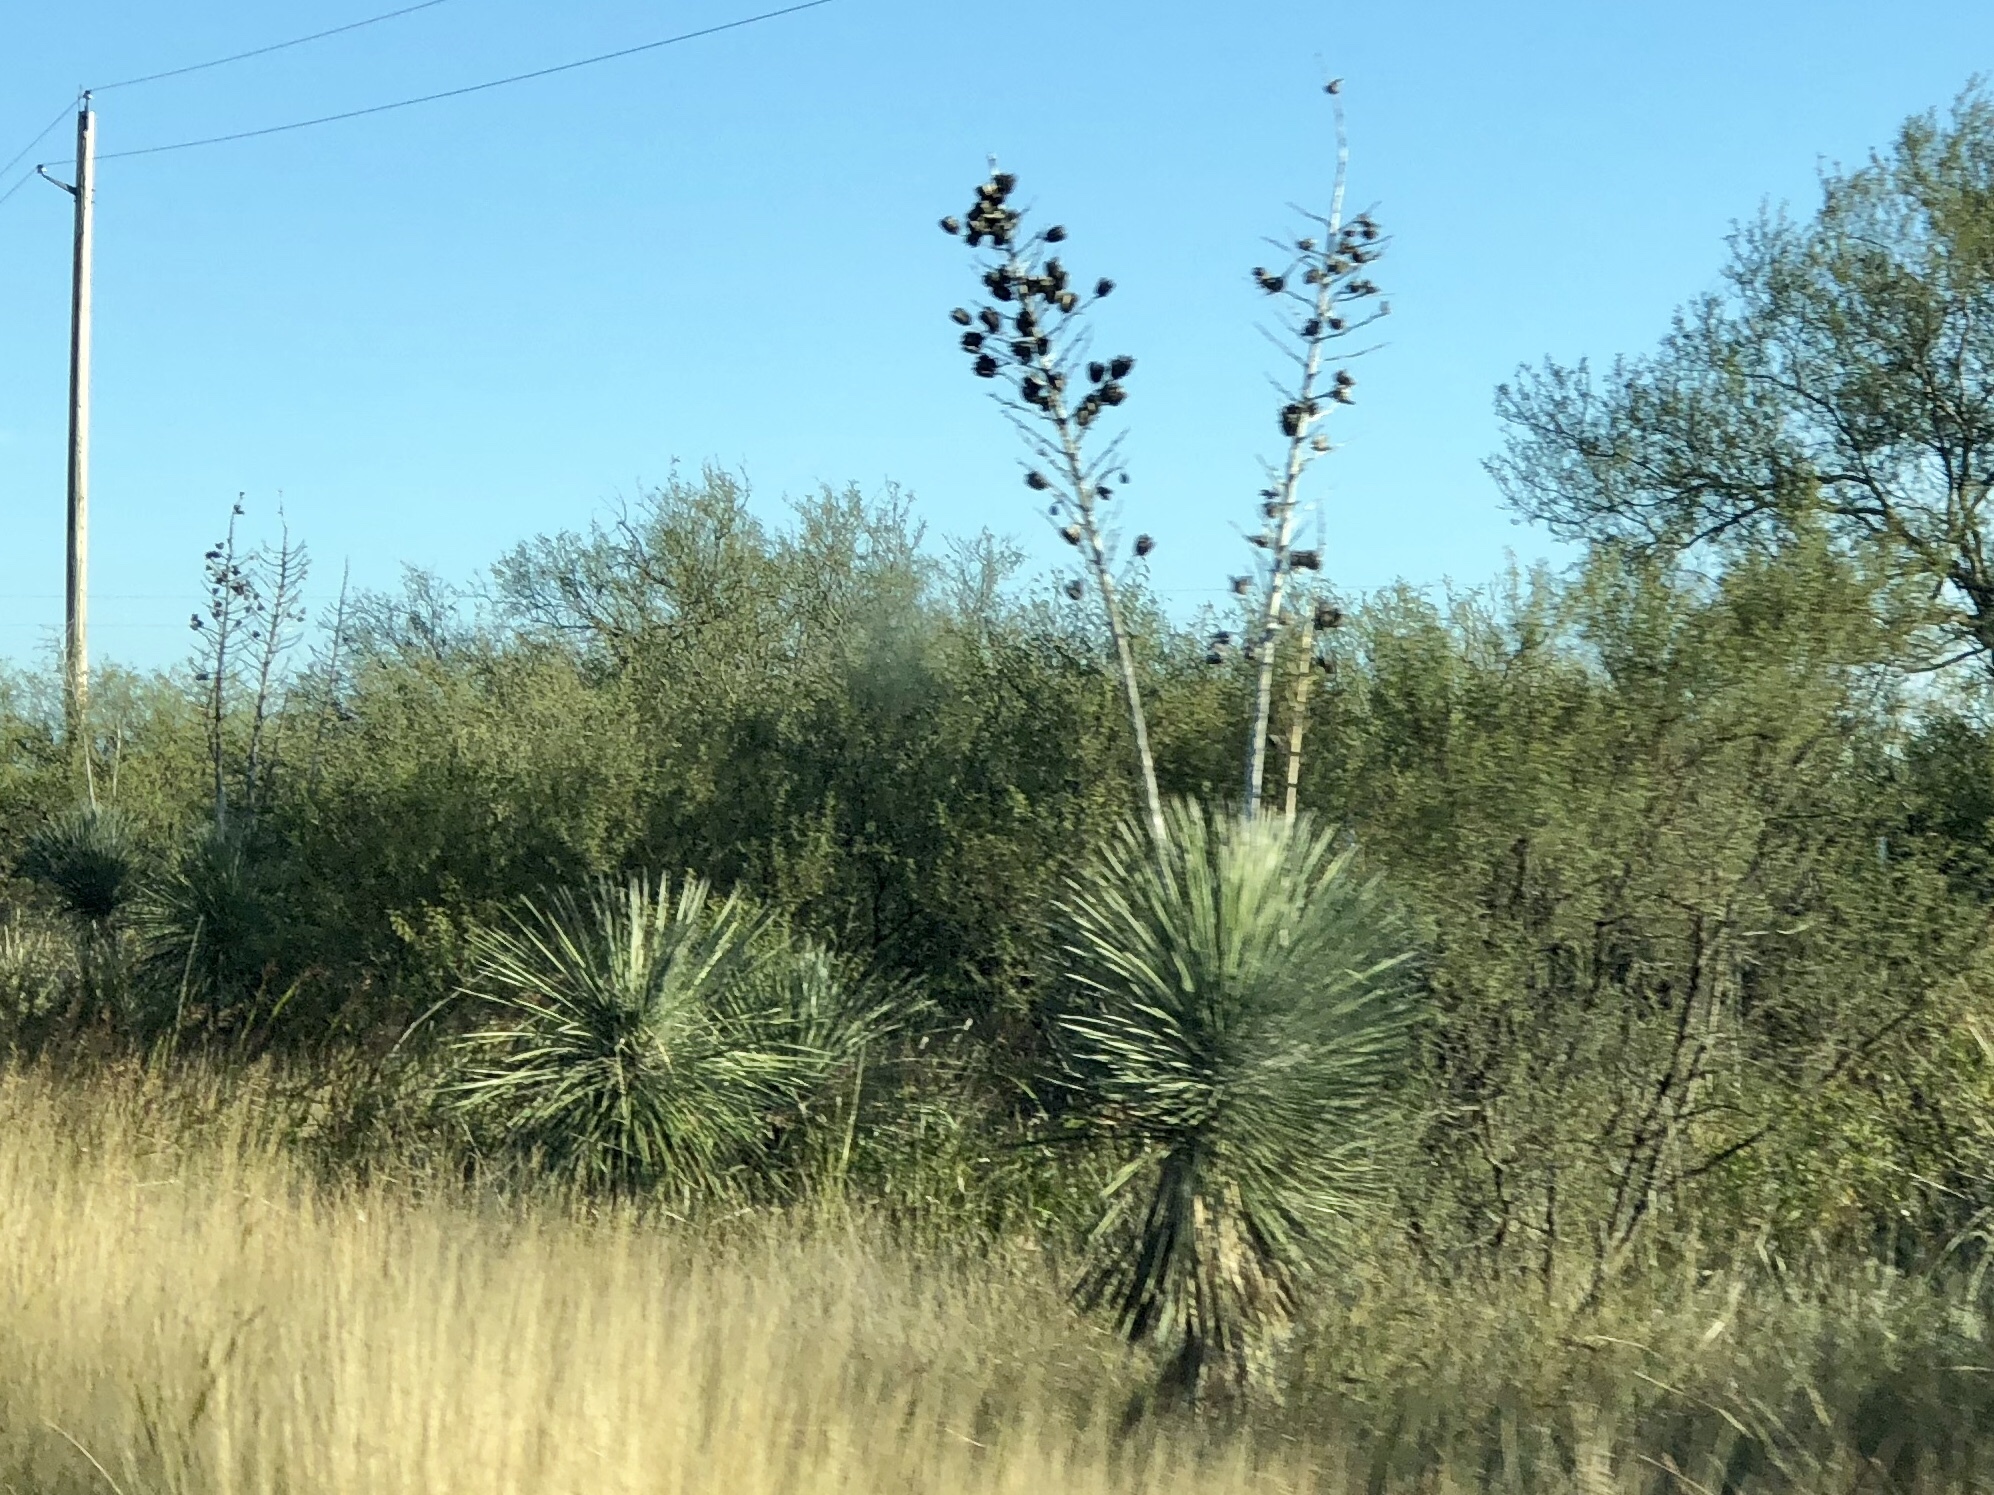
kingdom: Plantae
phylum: Tracheophyta
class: Liliopsida
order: Asparagales
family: Asparagaceae
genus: Yucca
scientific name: Yucca elata
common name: Palmella
